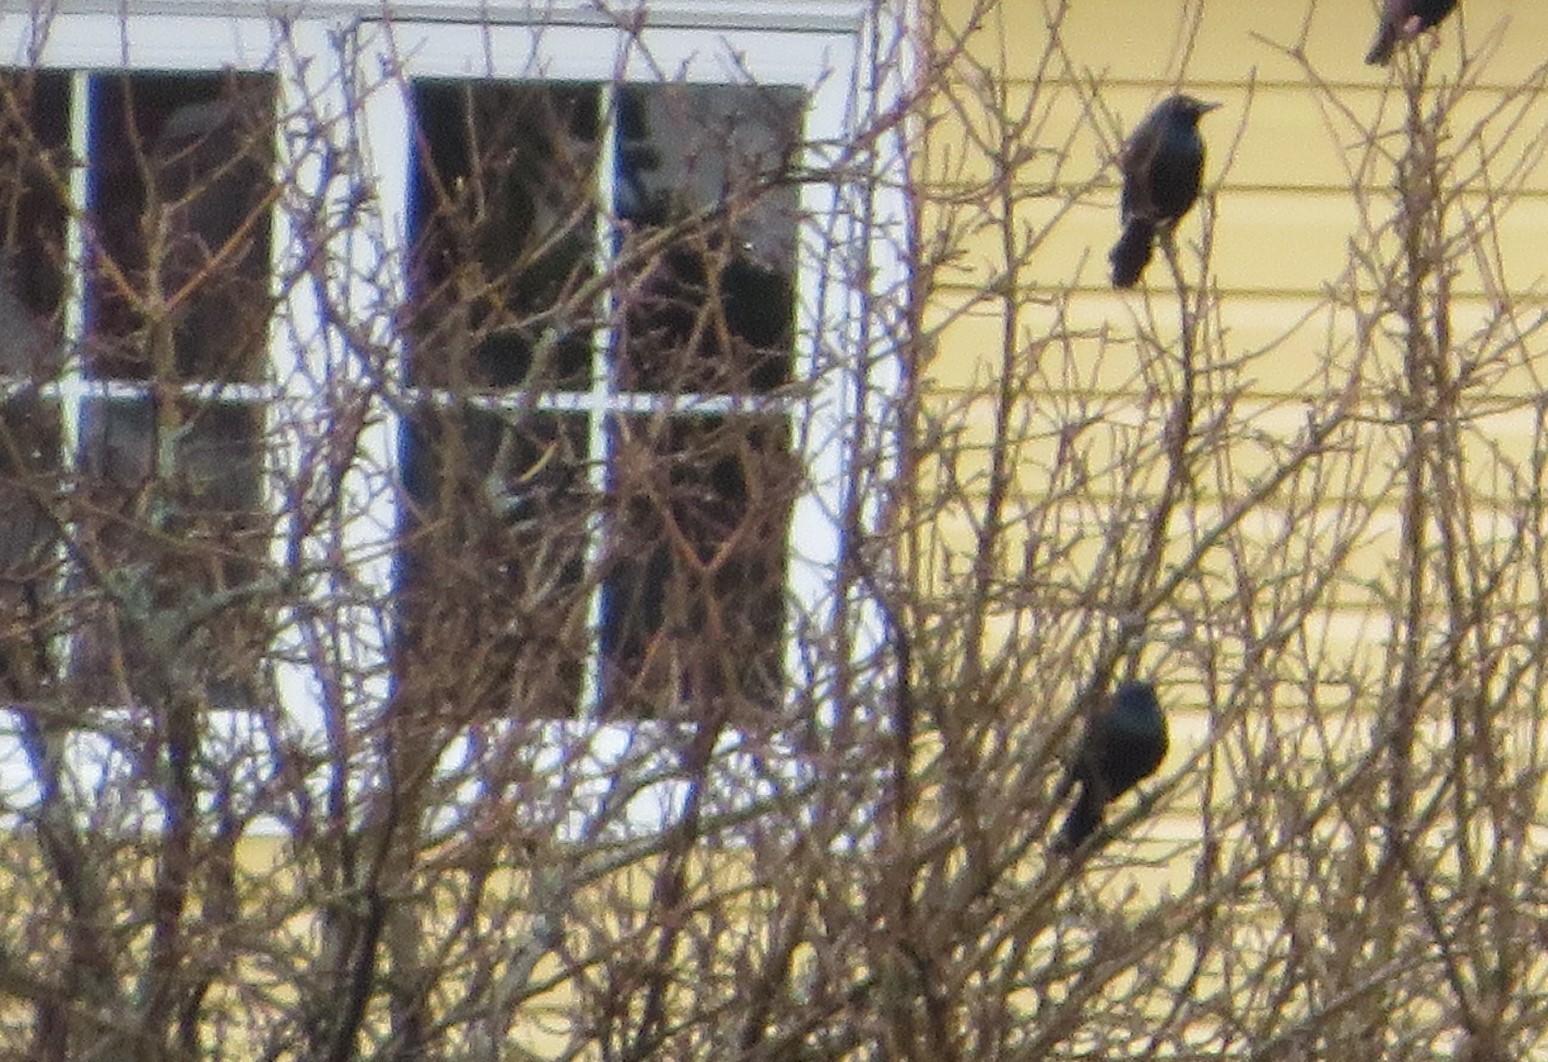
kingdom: Animalia
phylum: Chordata
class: Aves
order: Passeriformes
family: Icteridae
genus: Quiscalus
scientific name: Quiscalus quiscula
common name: Common grackle
